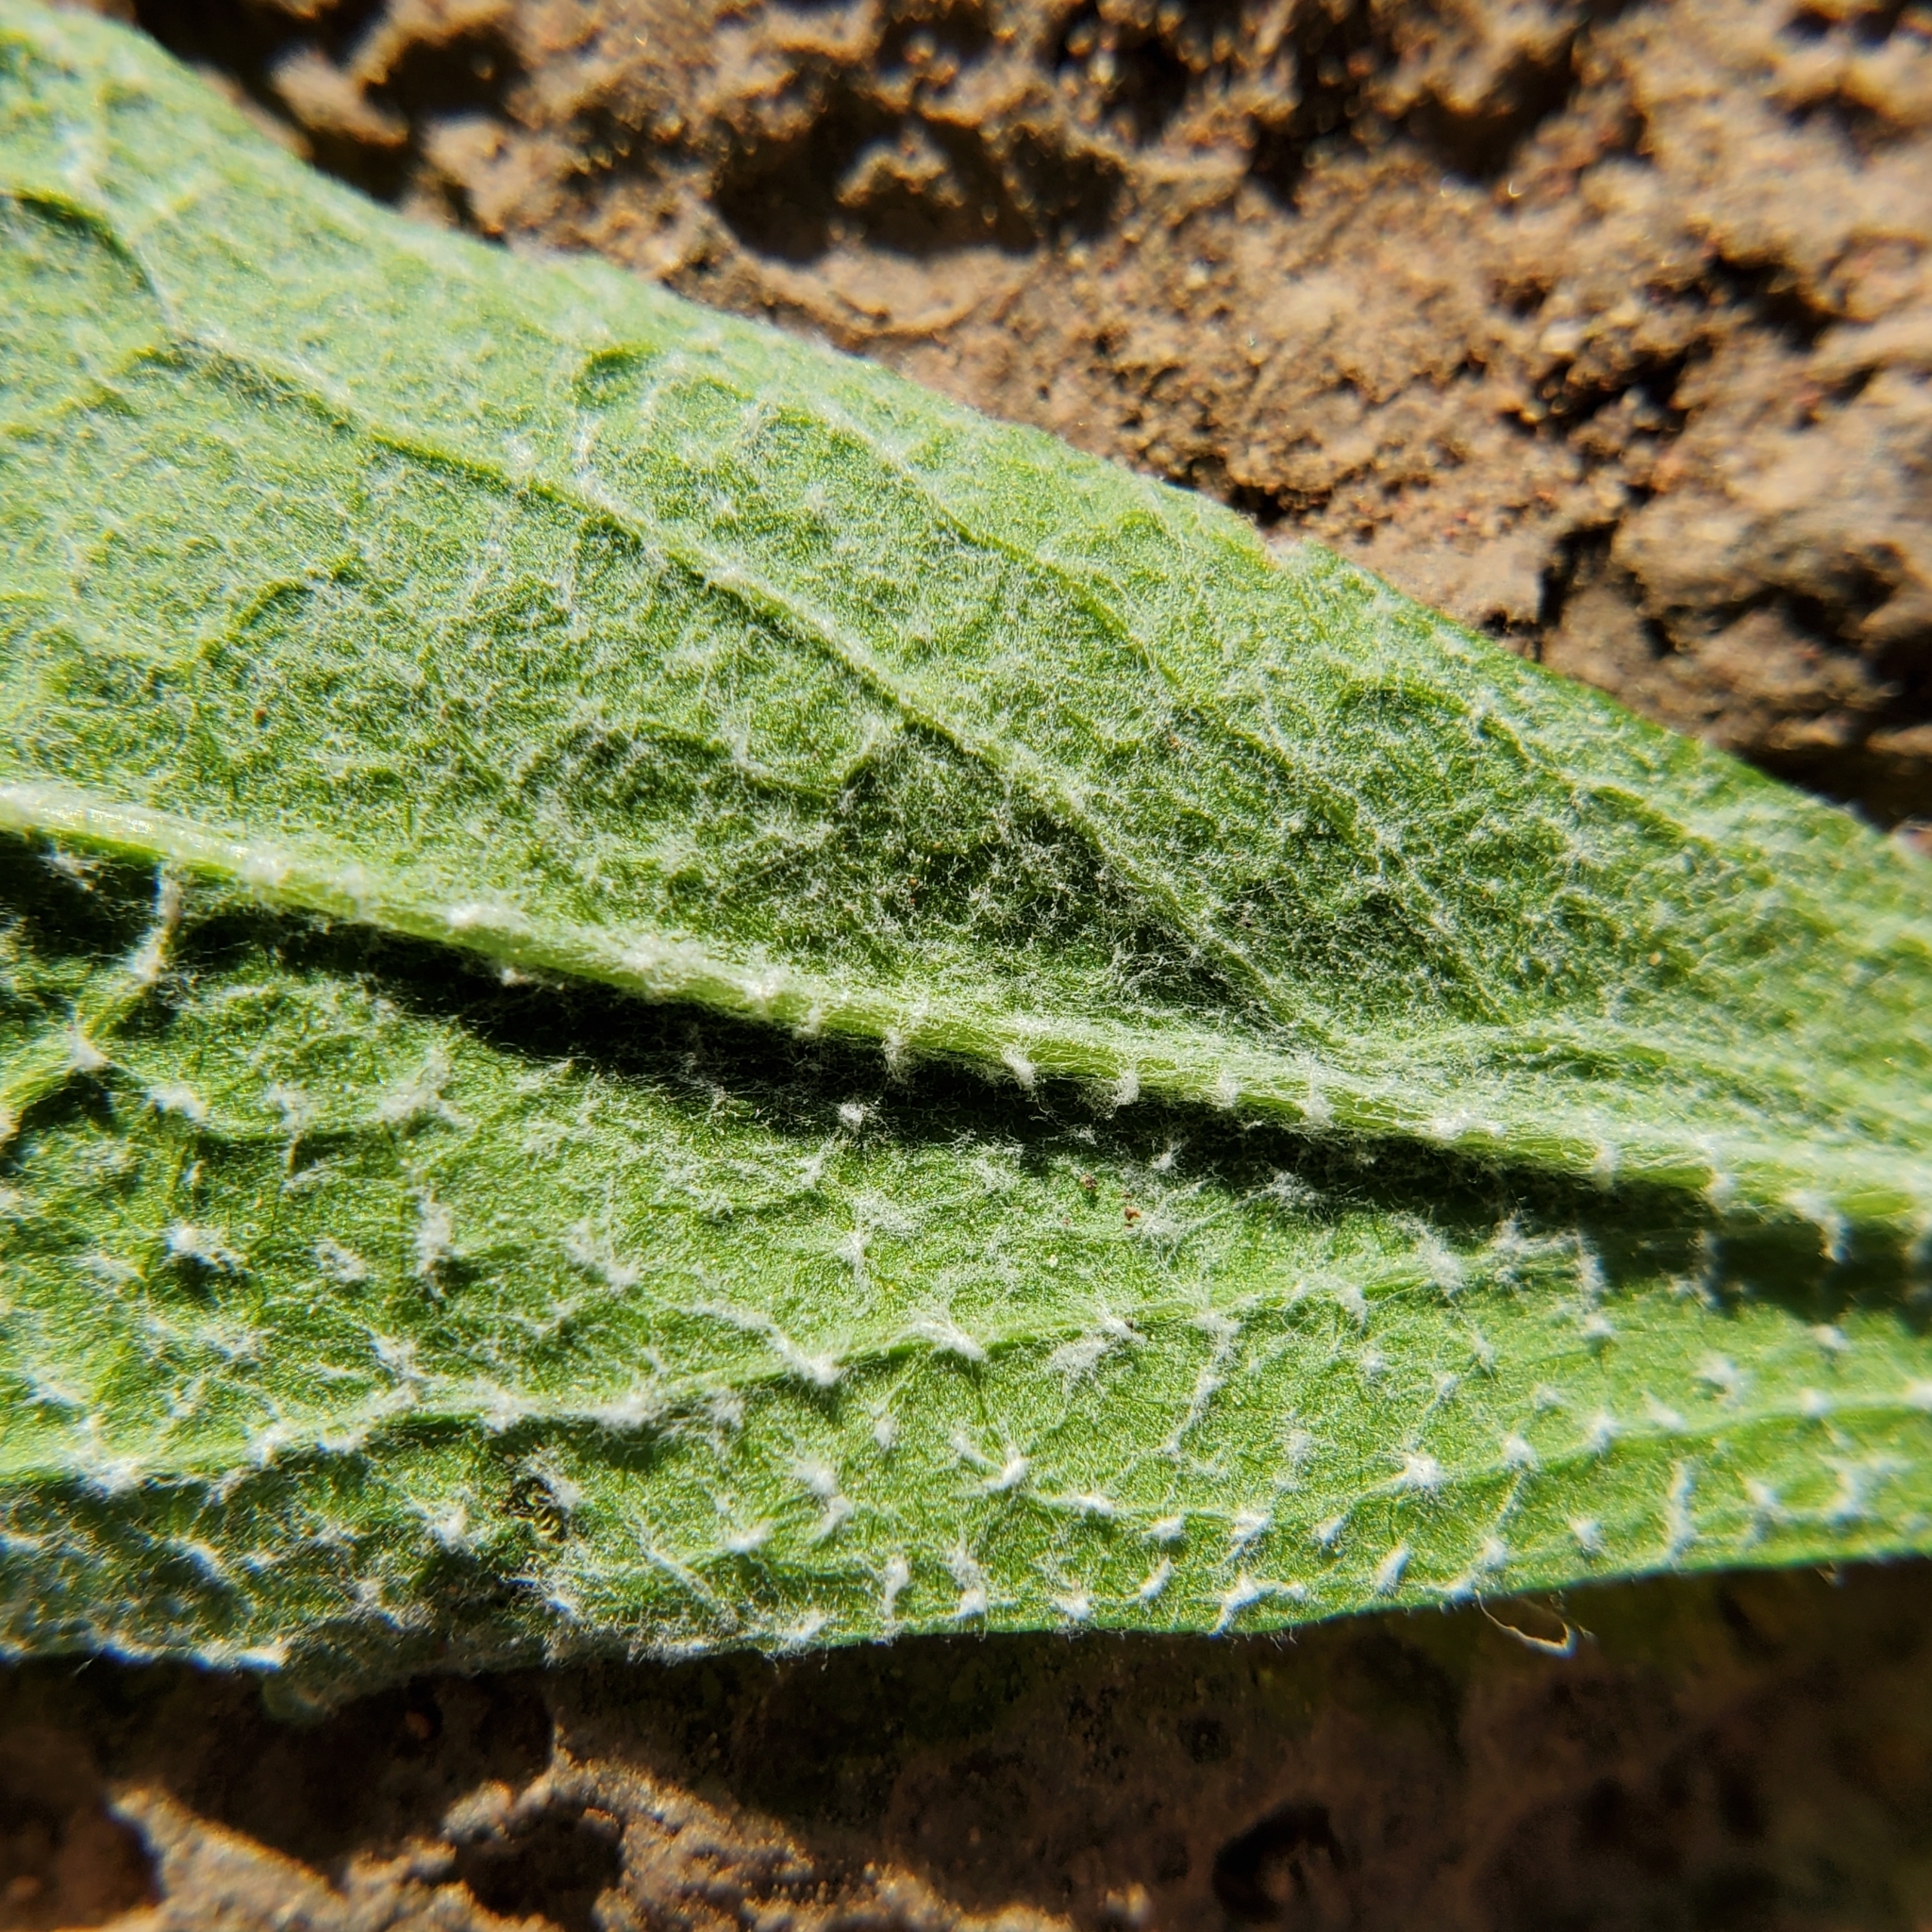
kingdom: Plantae
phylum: Tracheophyta
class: Magnoliopsida
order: Asterales
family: Asteraceae
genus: Corethrogyne
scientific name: Corethrogyne filaginifolia
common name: Sand-aster
